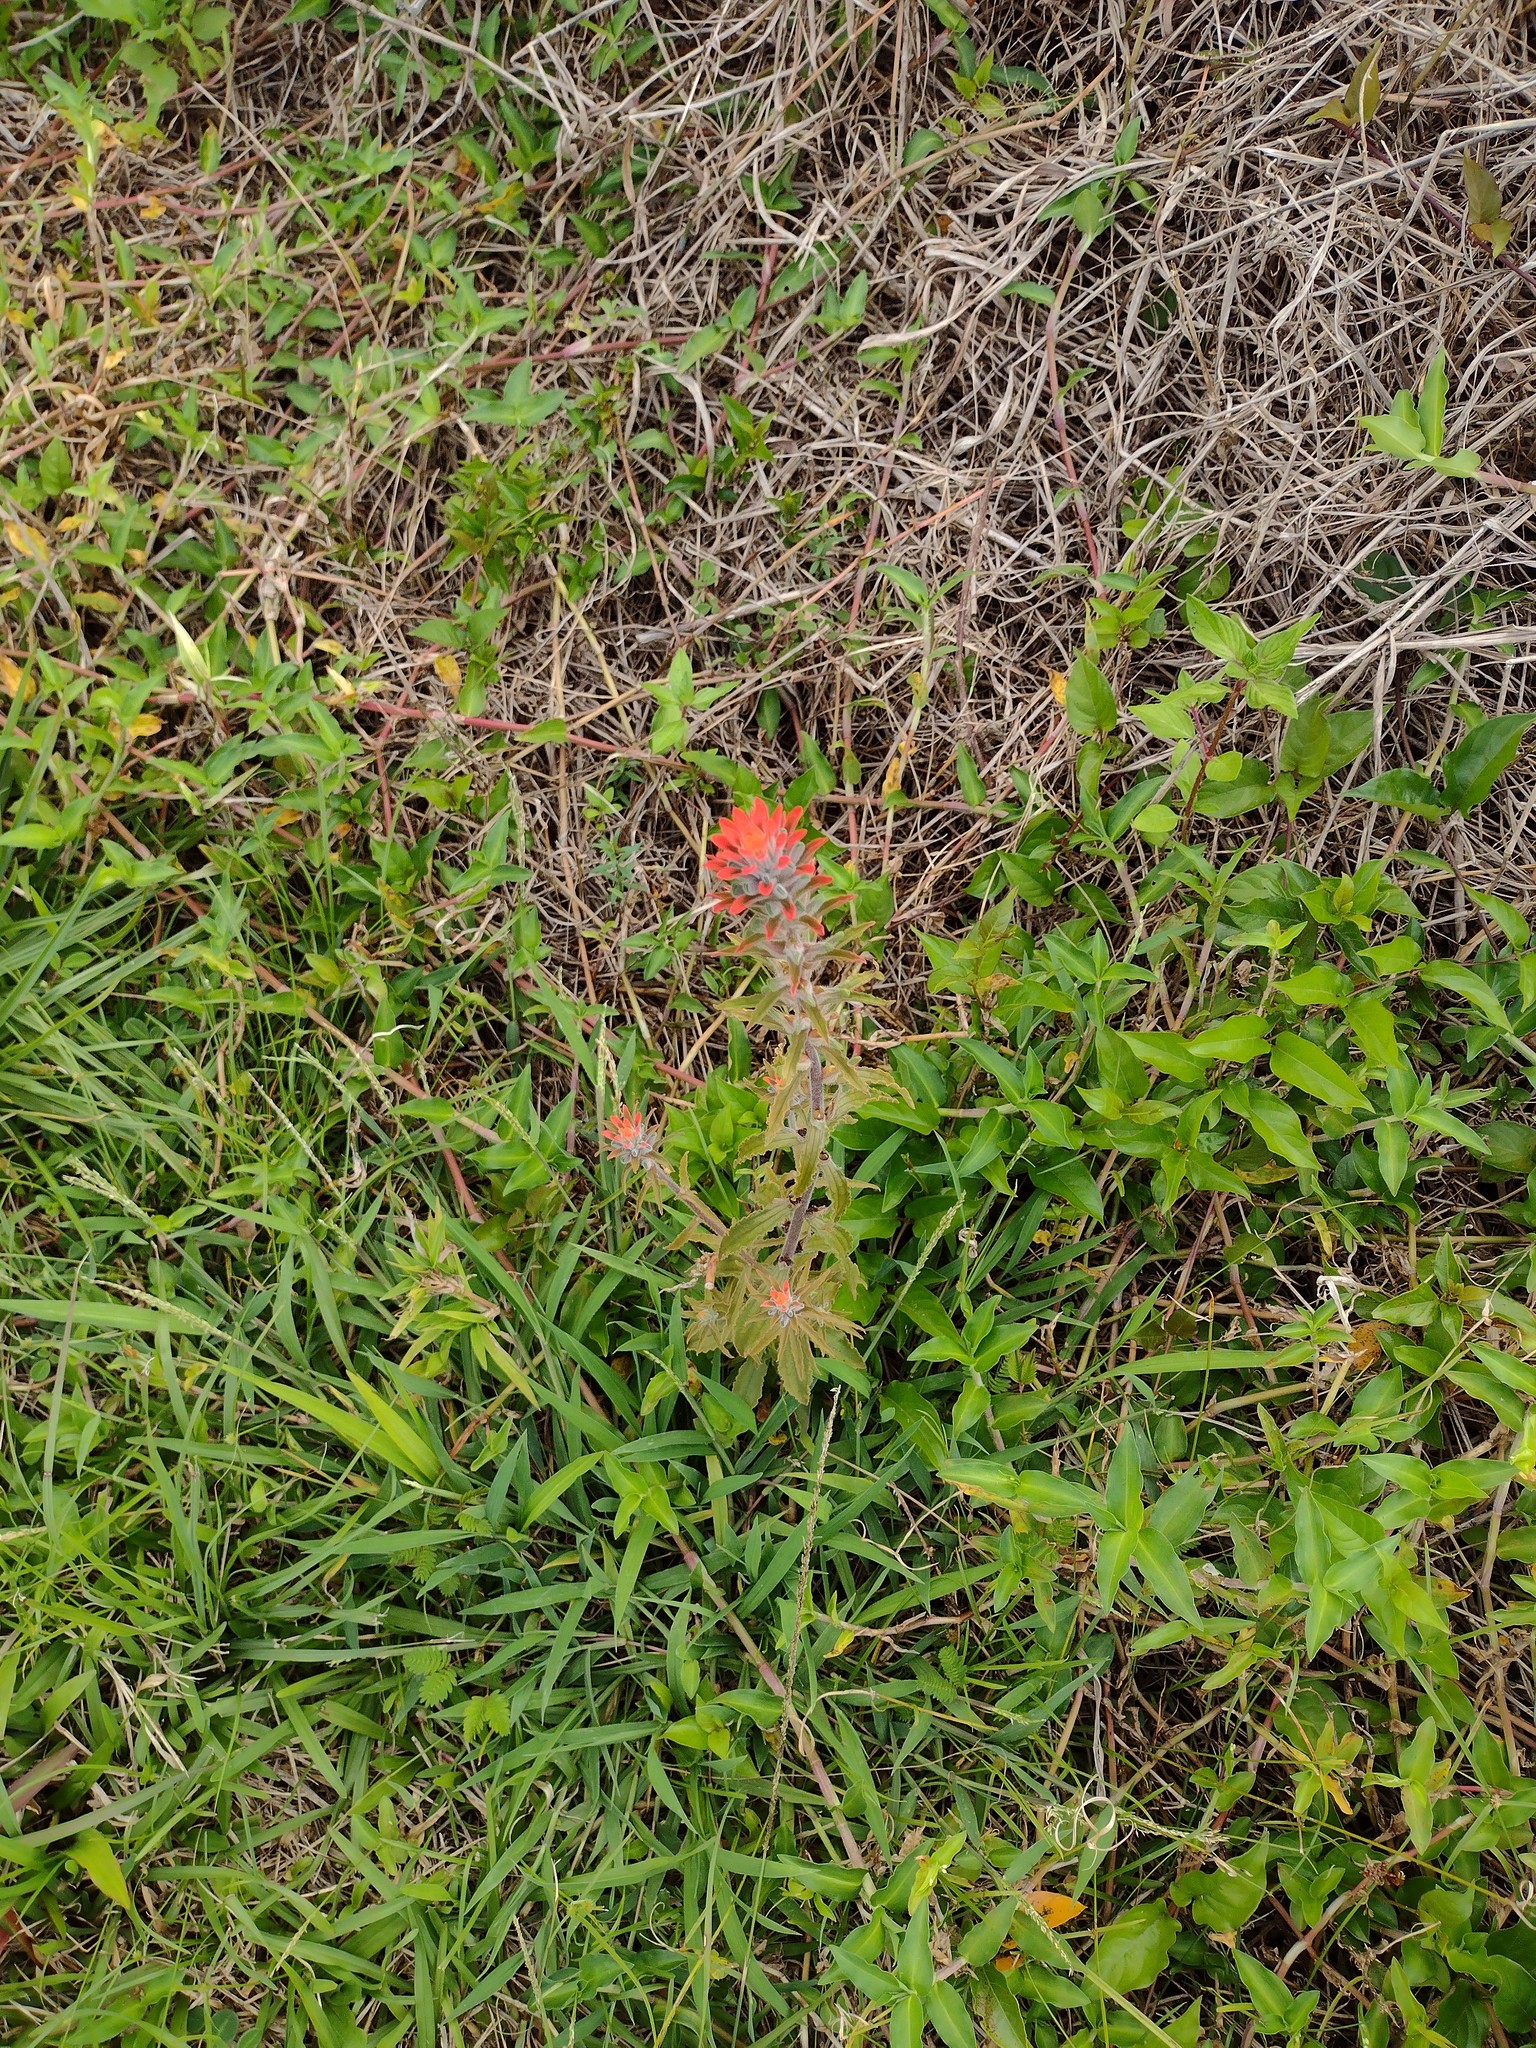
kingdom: Plantae
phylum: Tracheophyta
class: Magnoliopsida
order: Lamiales
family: Orobanchaceae
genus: Castilleja
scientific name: Castilleja arvensis
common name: Indian paintbrush
